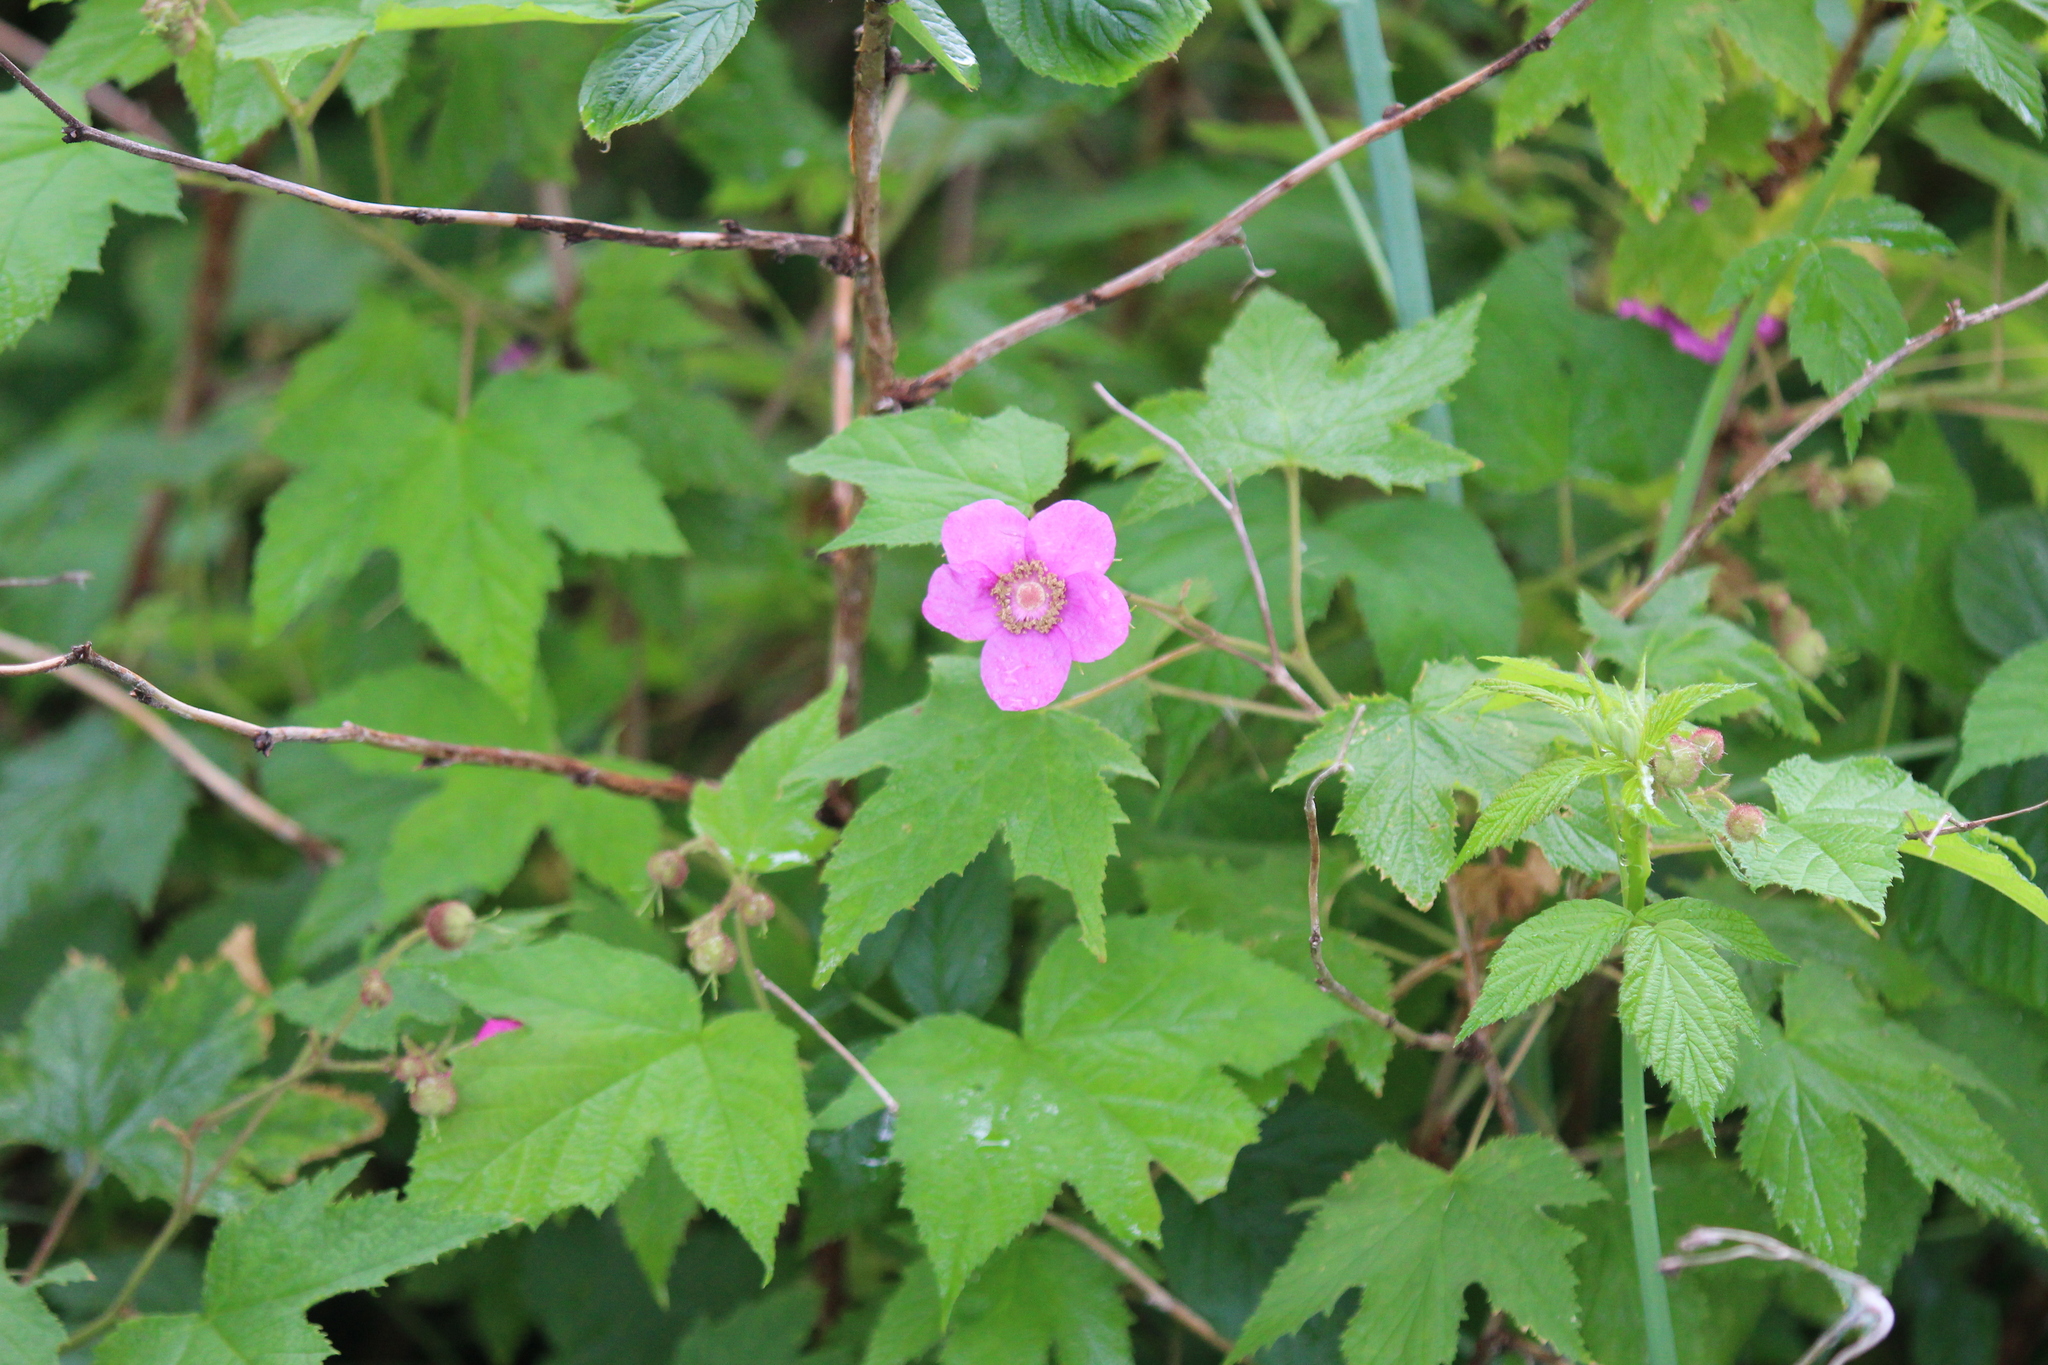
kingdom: Plantae
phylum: Tracheophyta
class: Magnoliopsida
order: Rosales
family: Rosaceae
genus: Rubus
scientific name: Rubus odoratus
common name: Purple-flowered raspberry
